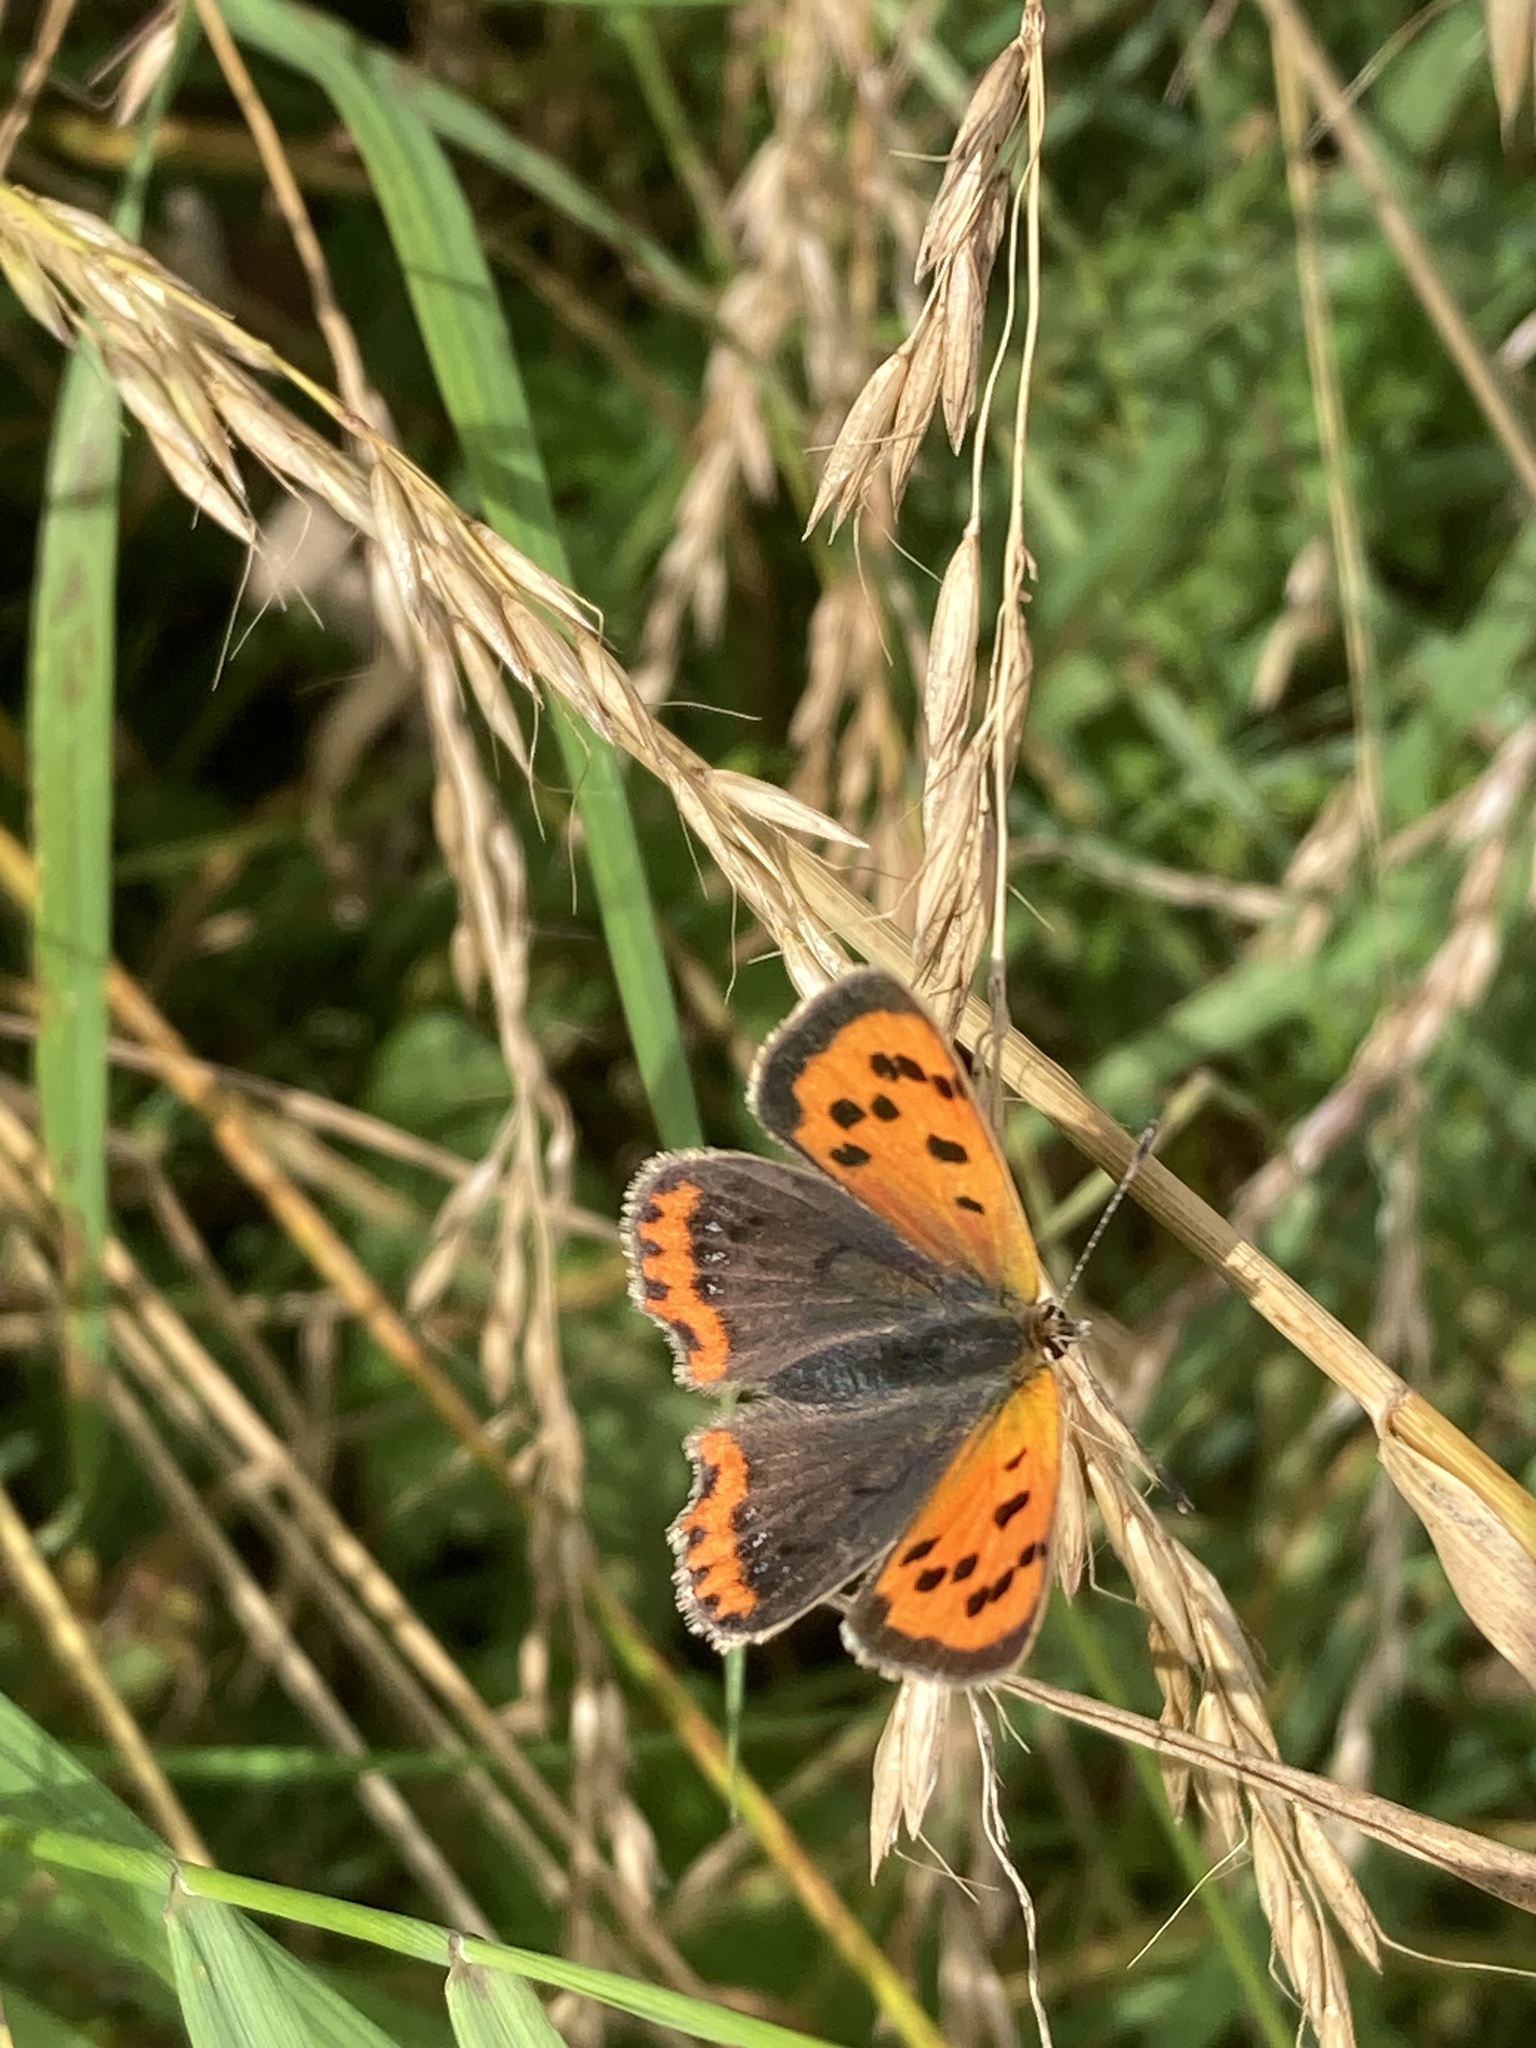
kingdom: Animalia
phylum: Arthropoda
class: Insecta
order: Lepidoptera
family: Lycaenidae
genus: Lycaena
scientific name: Lycaena phlaeas
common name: Small copper
